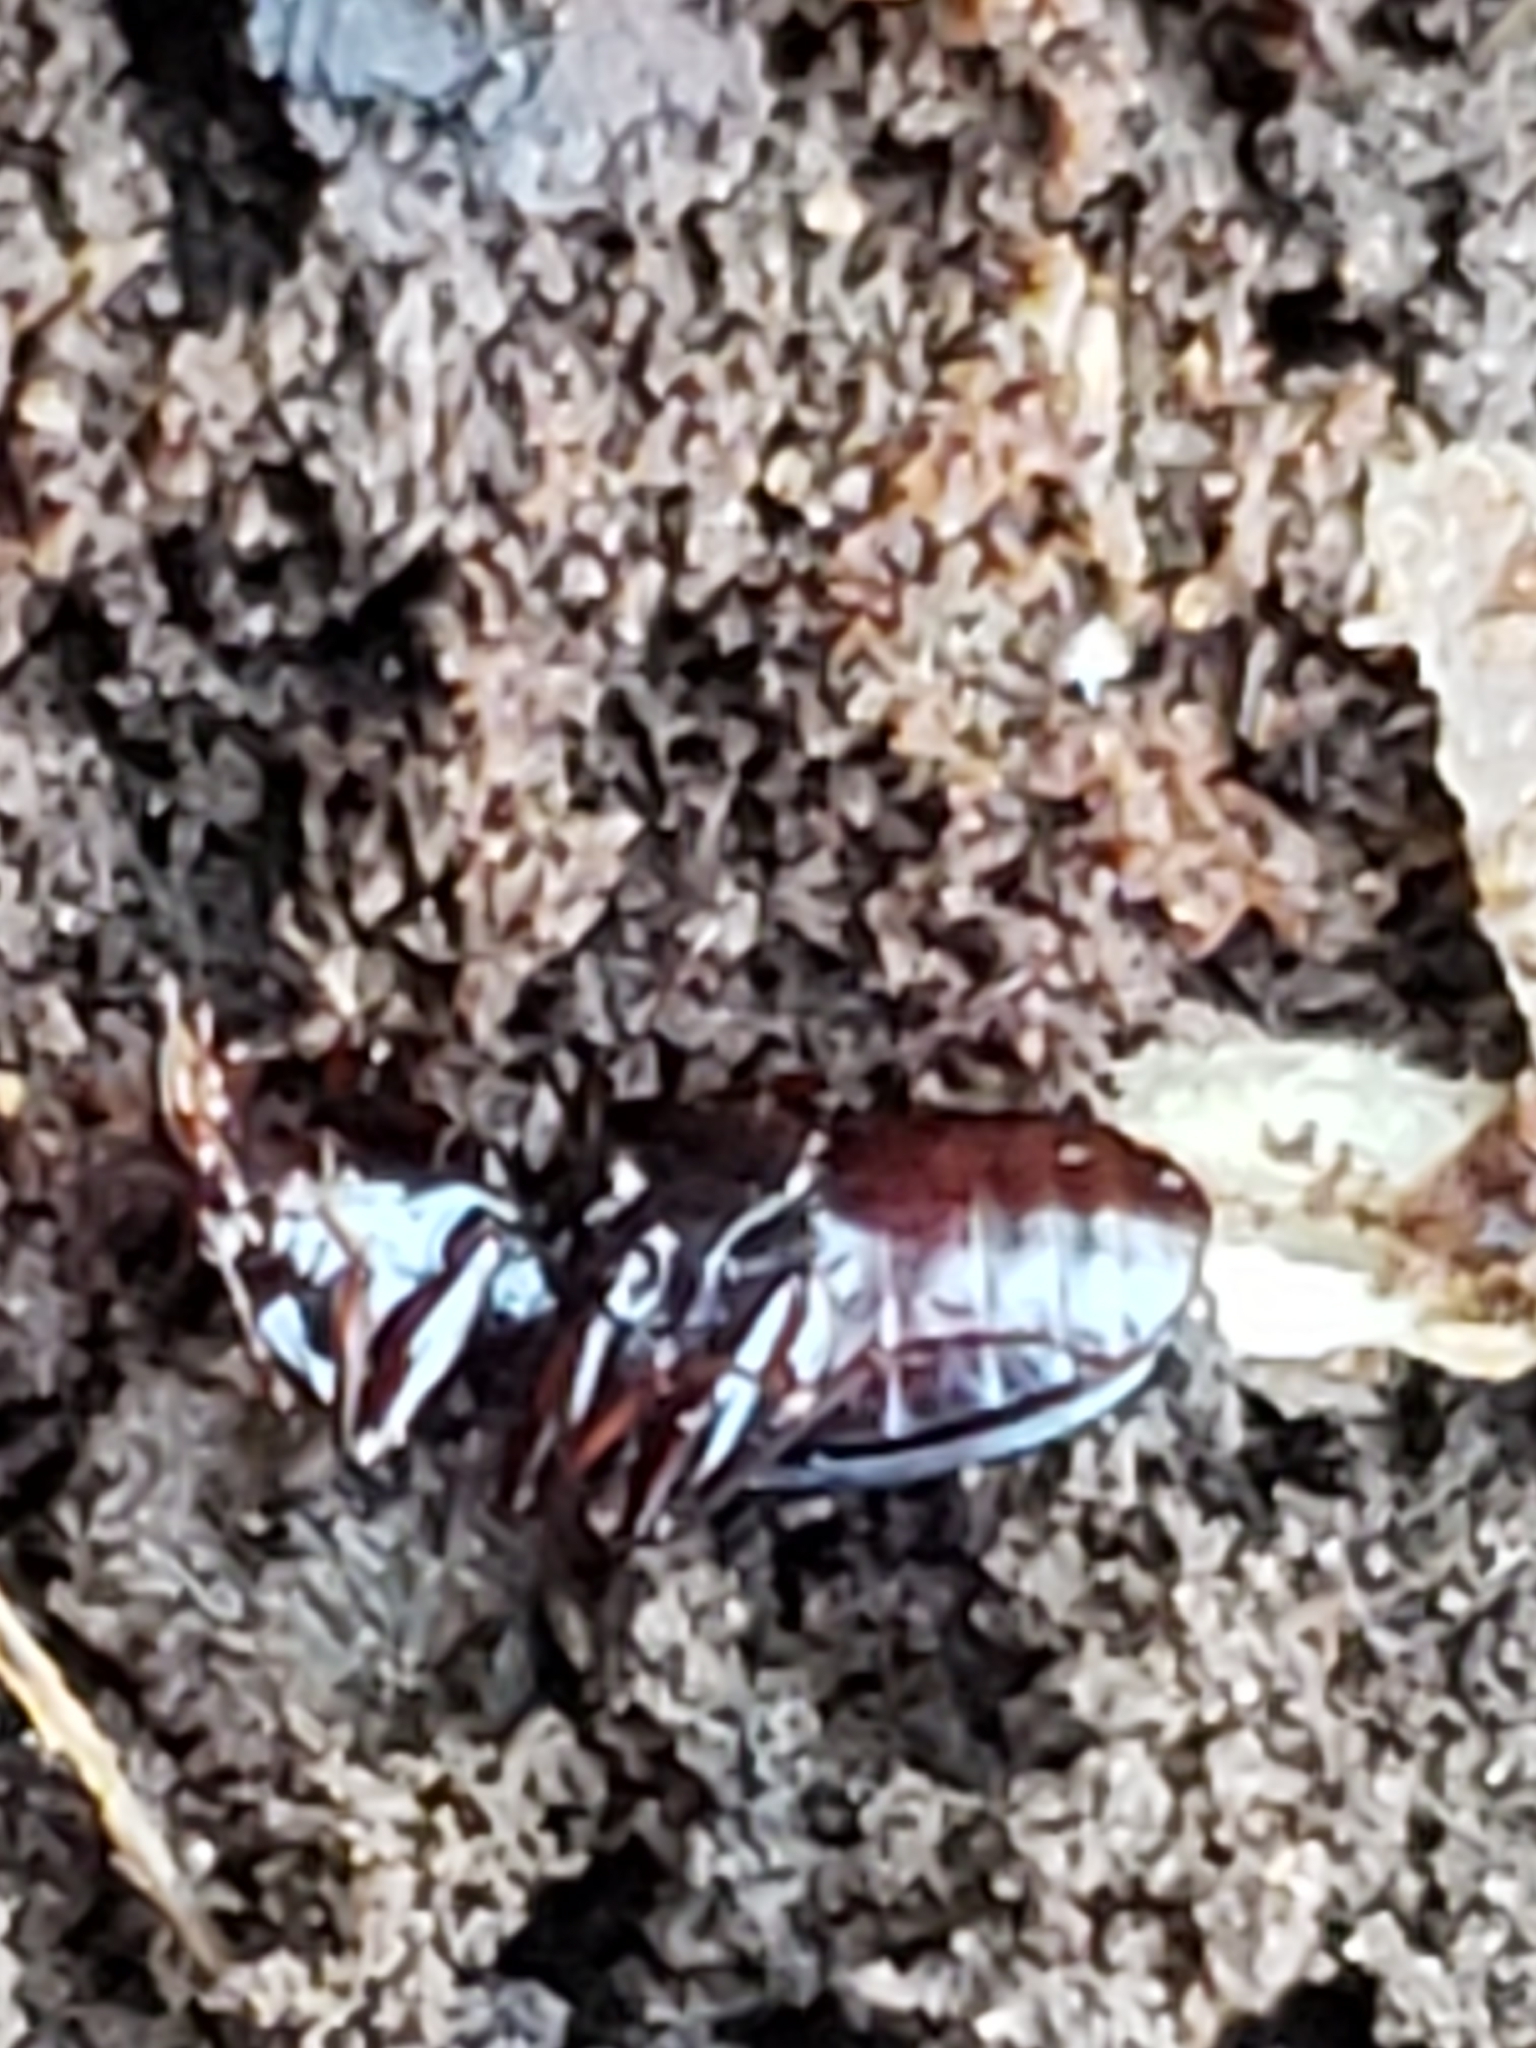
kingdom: Animalia
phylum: Arthropoda
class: Insecta
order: Coleoptera
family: Carabidae
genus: Gastrellarius
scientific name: Gastrellarius honestus
